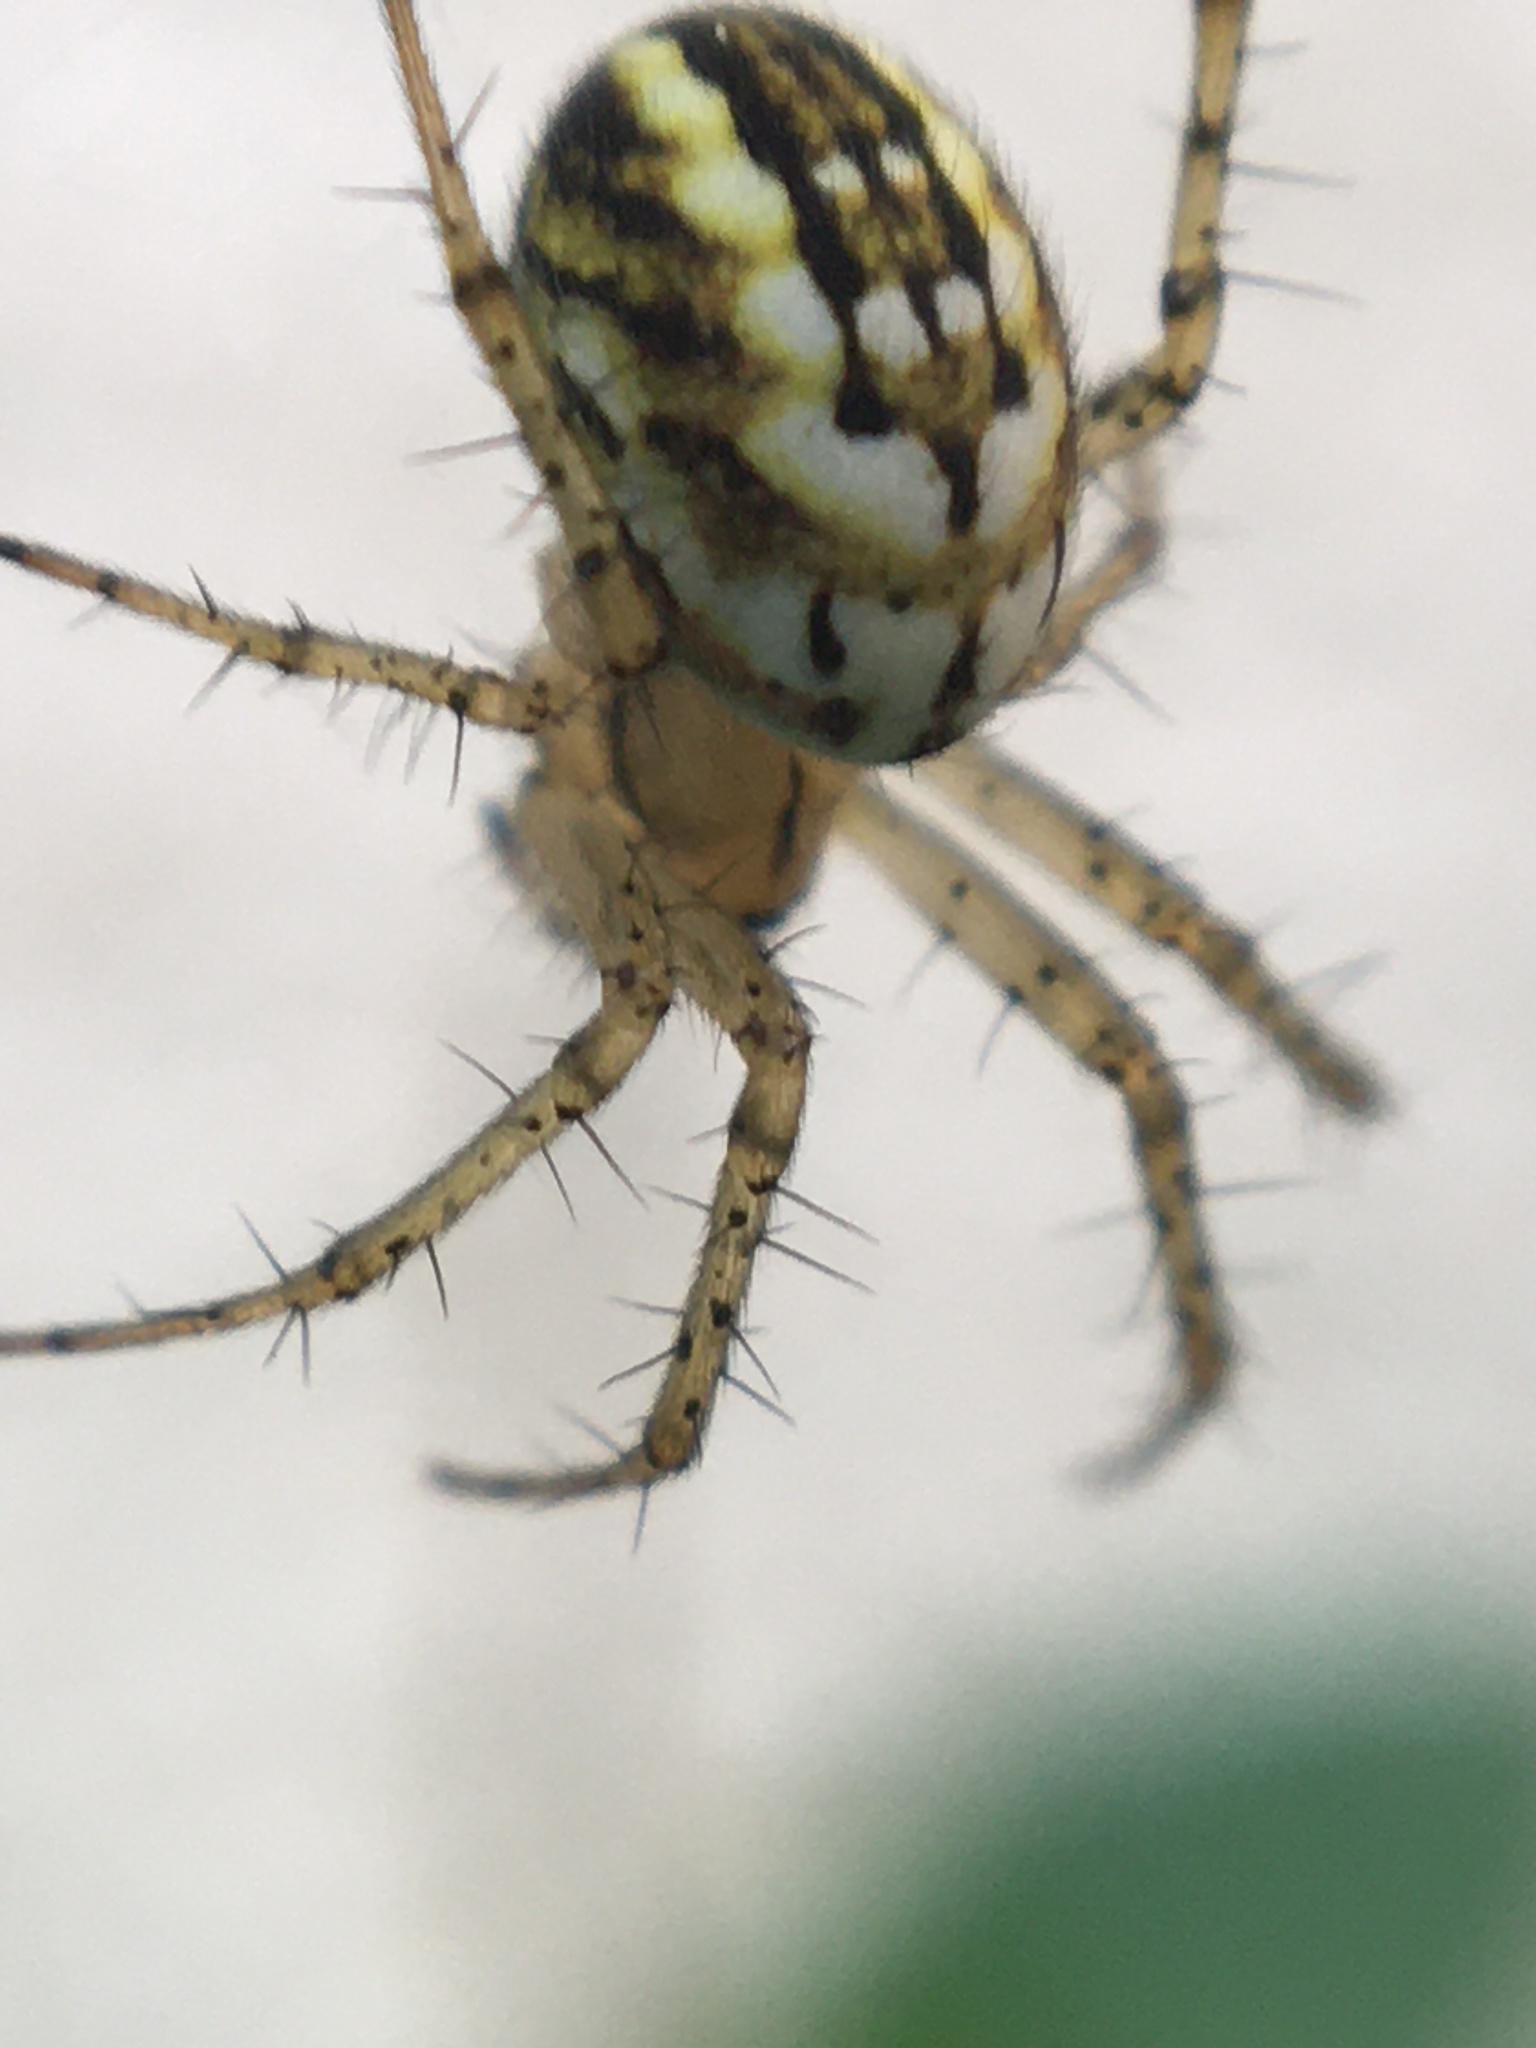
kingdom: Animalia
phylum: Arthropoda
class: Arachnida
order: Araneae
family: Araneidae
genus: Mangora
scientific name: Mangora acalypha
